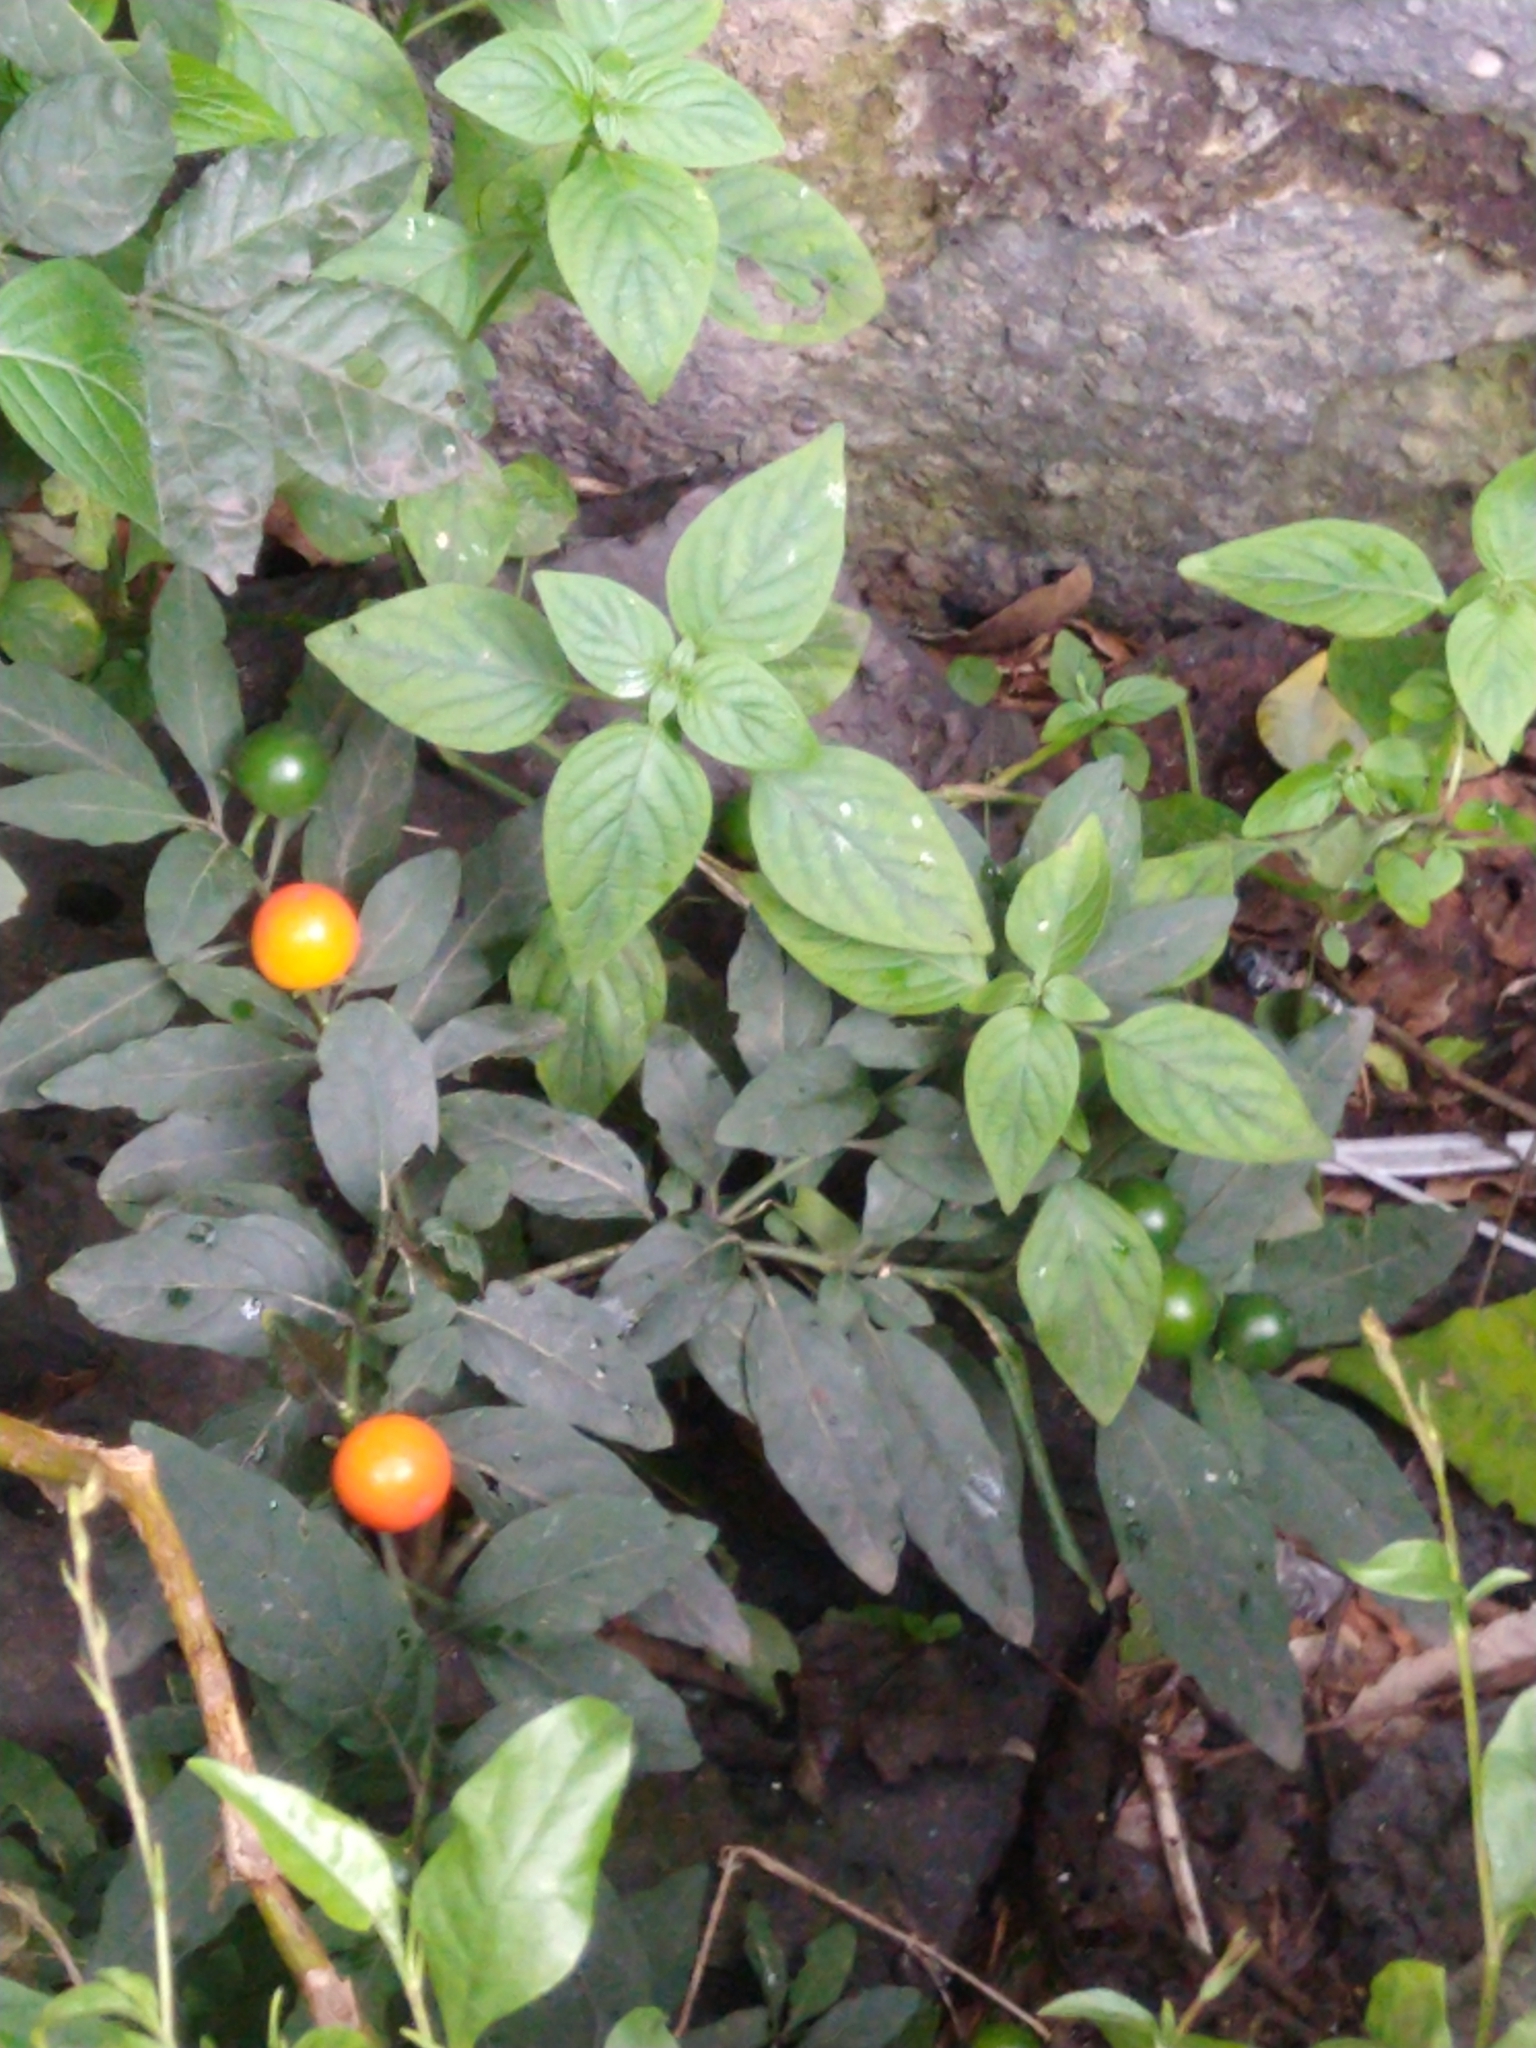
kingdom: Plantae
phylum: Tracheophyta
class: Magnoliopsida
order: Solanales
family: Solanaceae
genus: Solanum
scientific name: Solanum pseudocapsicum
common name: Jerusalem cherry
